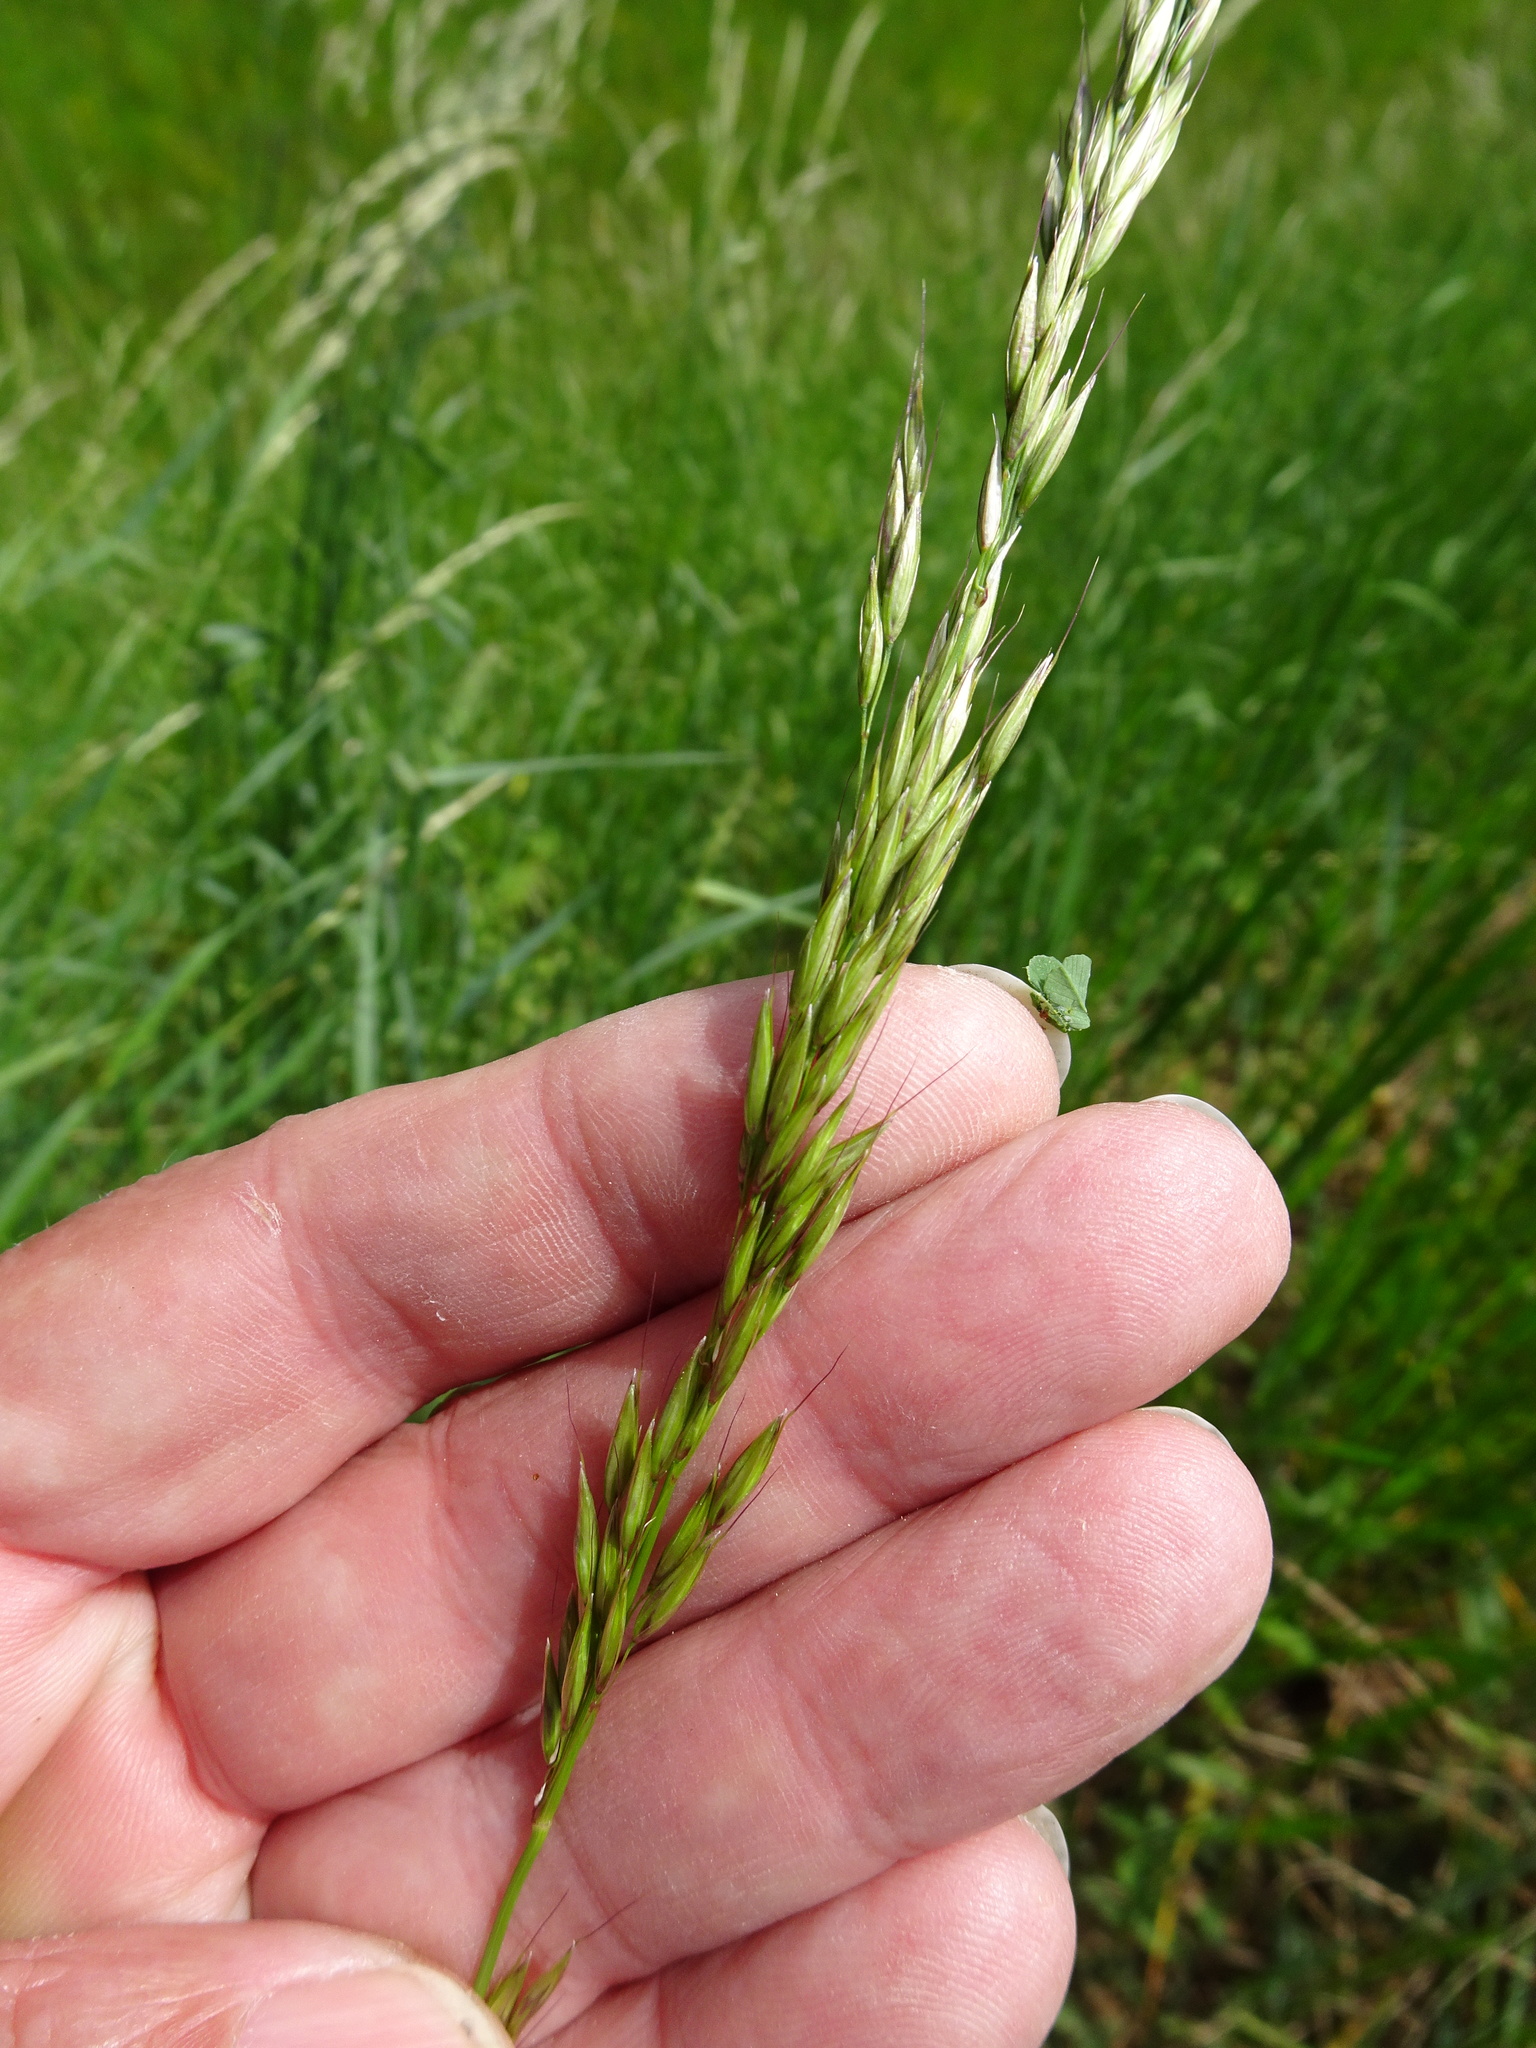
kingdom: Plantae
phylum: Tracheophyta
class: Liliopsida
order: Poales
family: Poaceae
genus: Arrhenatherum
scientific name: Arrhenatherum elatius
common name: Tall oatgrass
